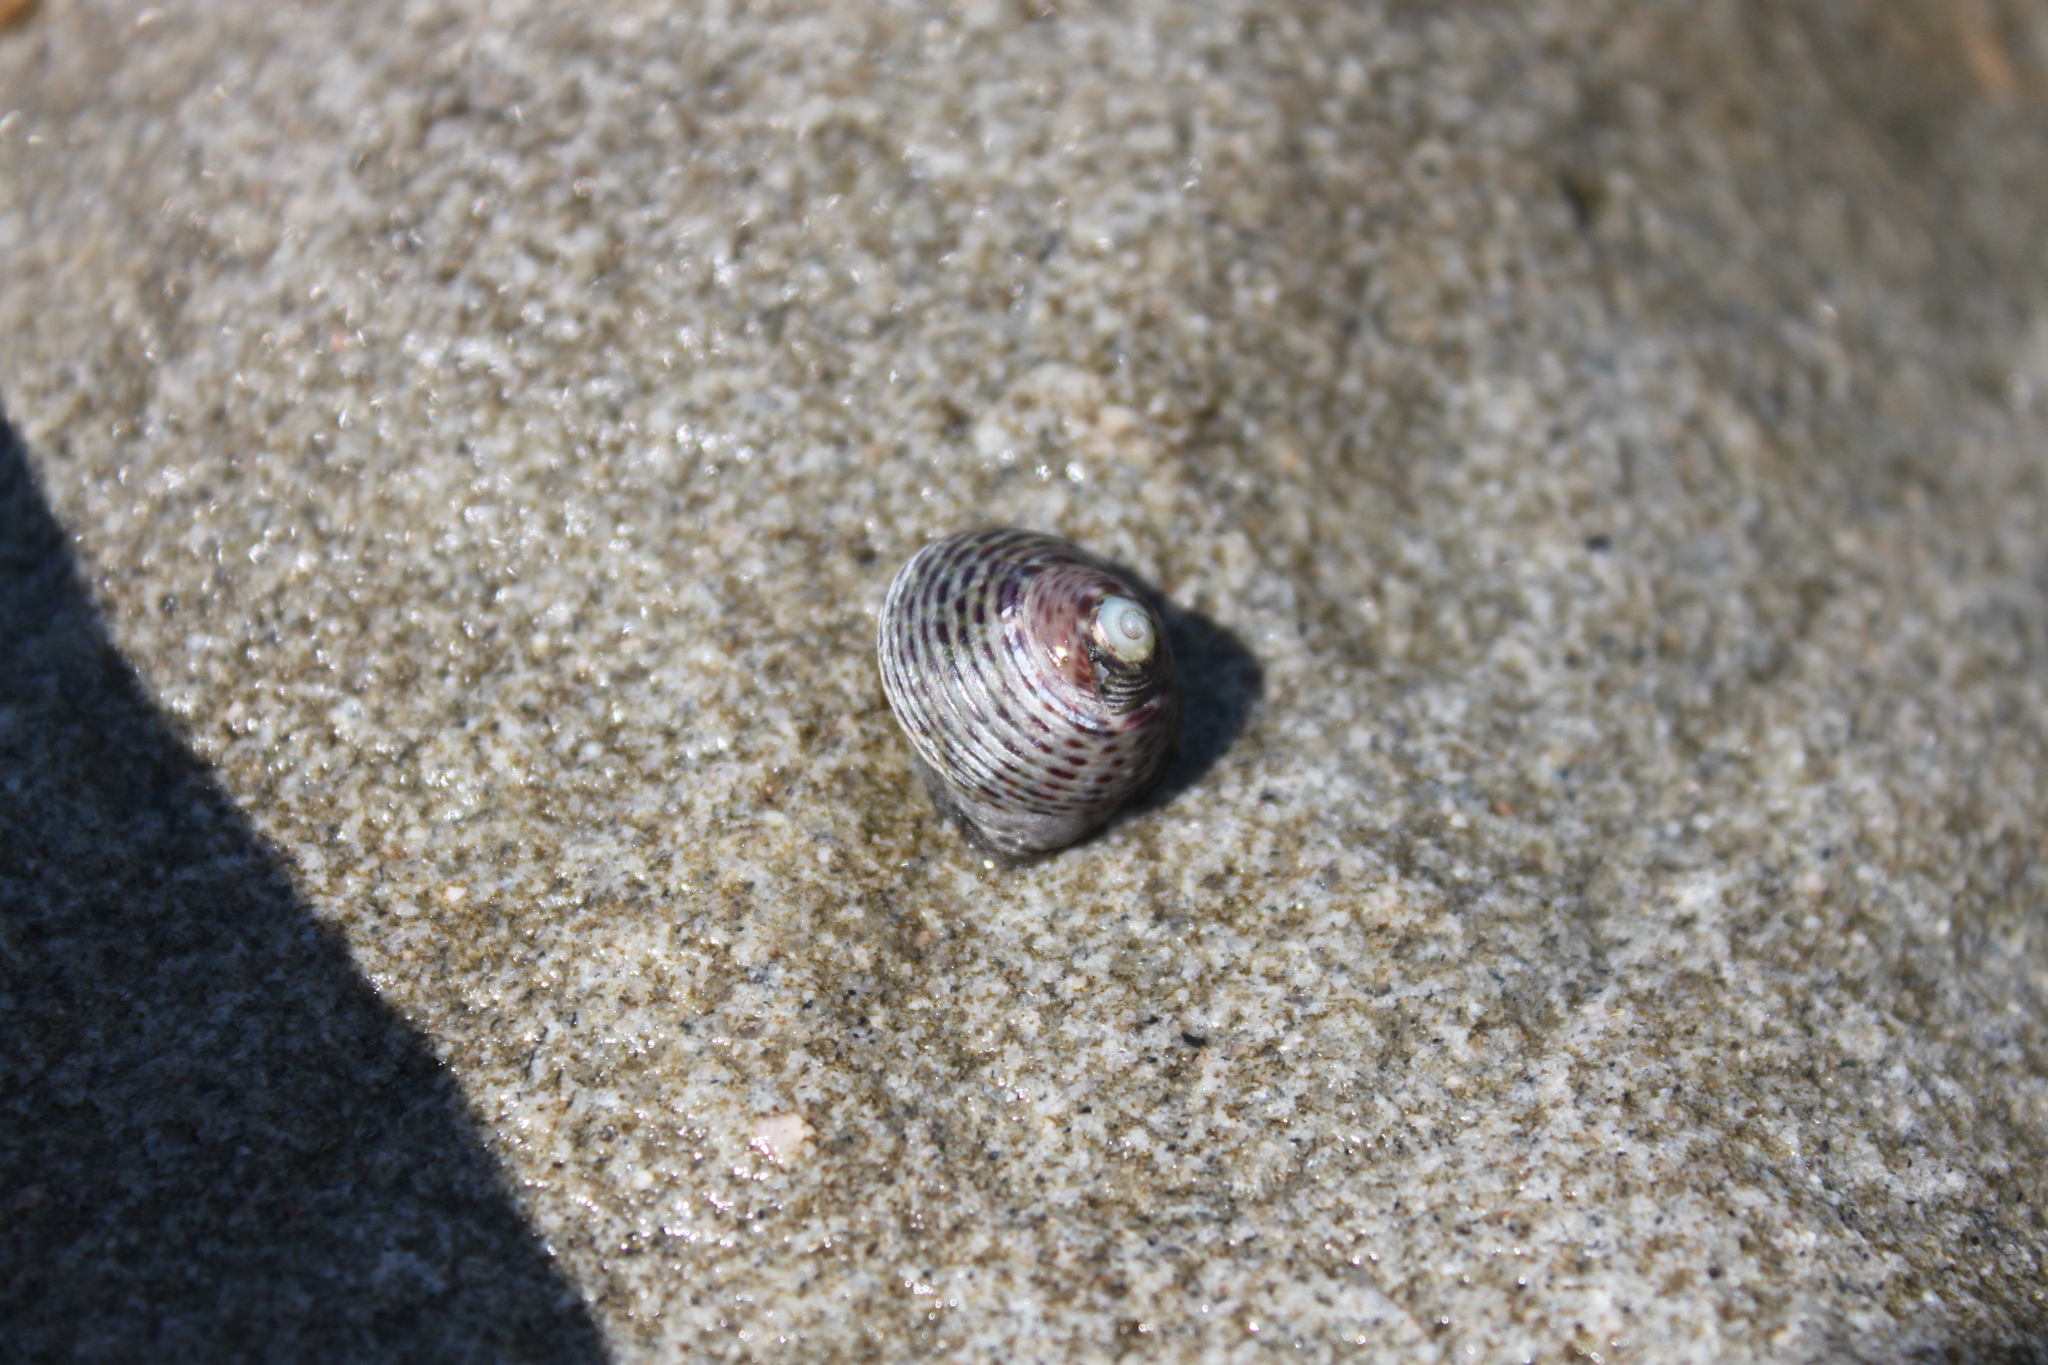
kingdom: Animalia
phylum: Mollusca
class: Gastropoda
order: Trochida
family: Trochidae
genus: Phorcus
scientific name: Phorcus turbinatus
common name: Turbinate monodont
